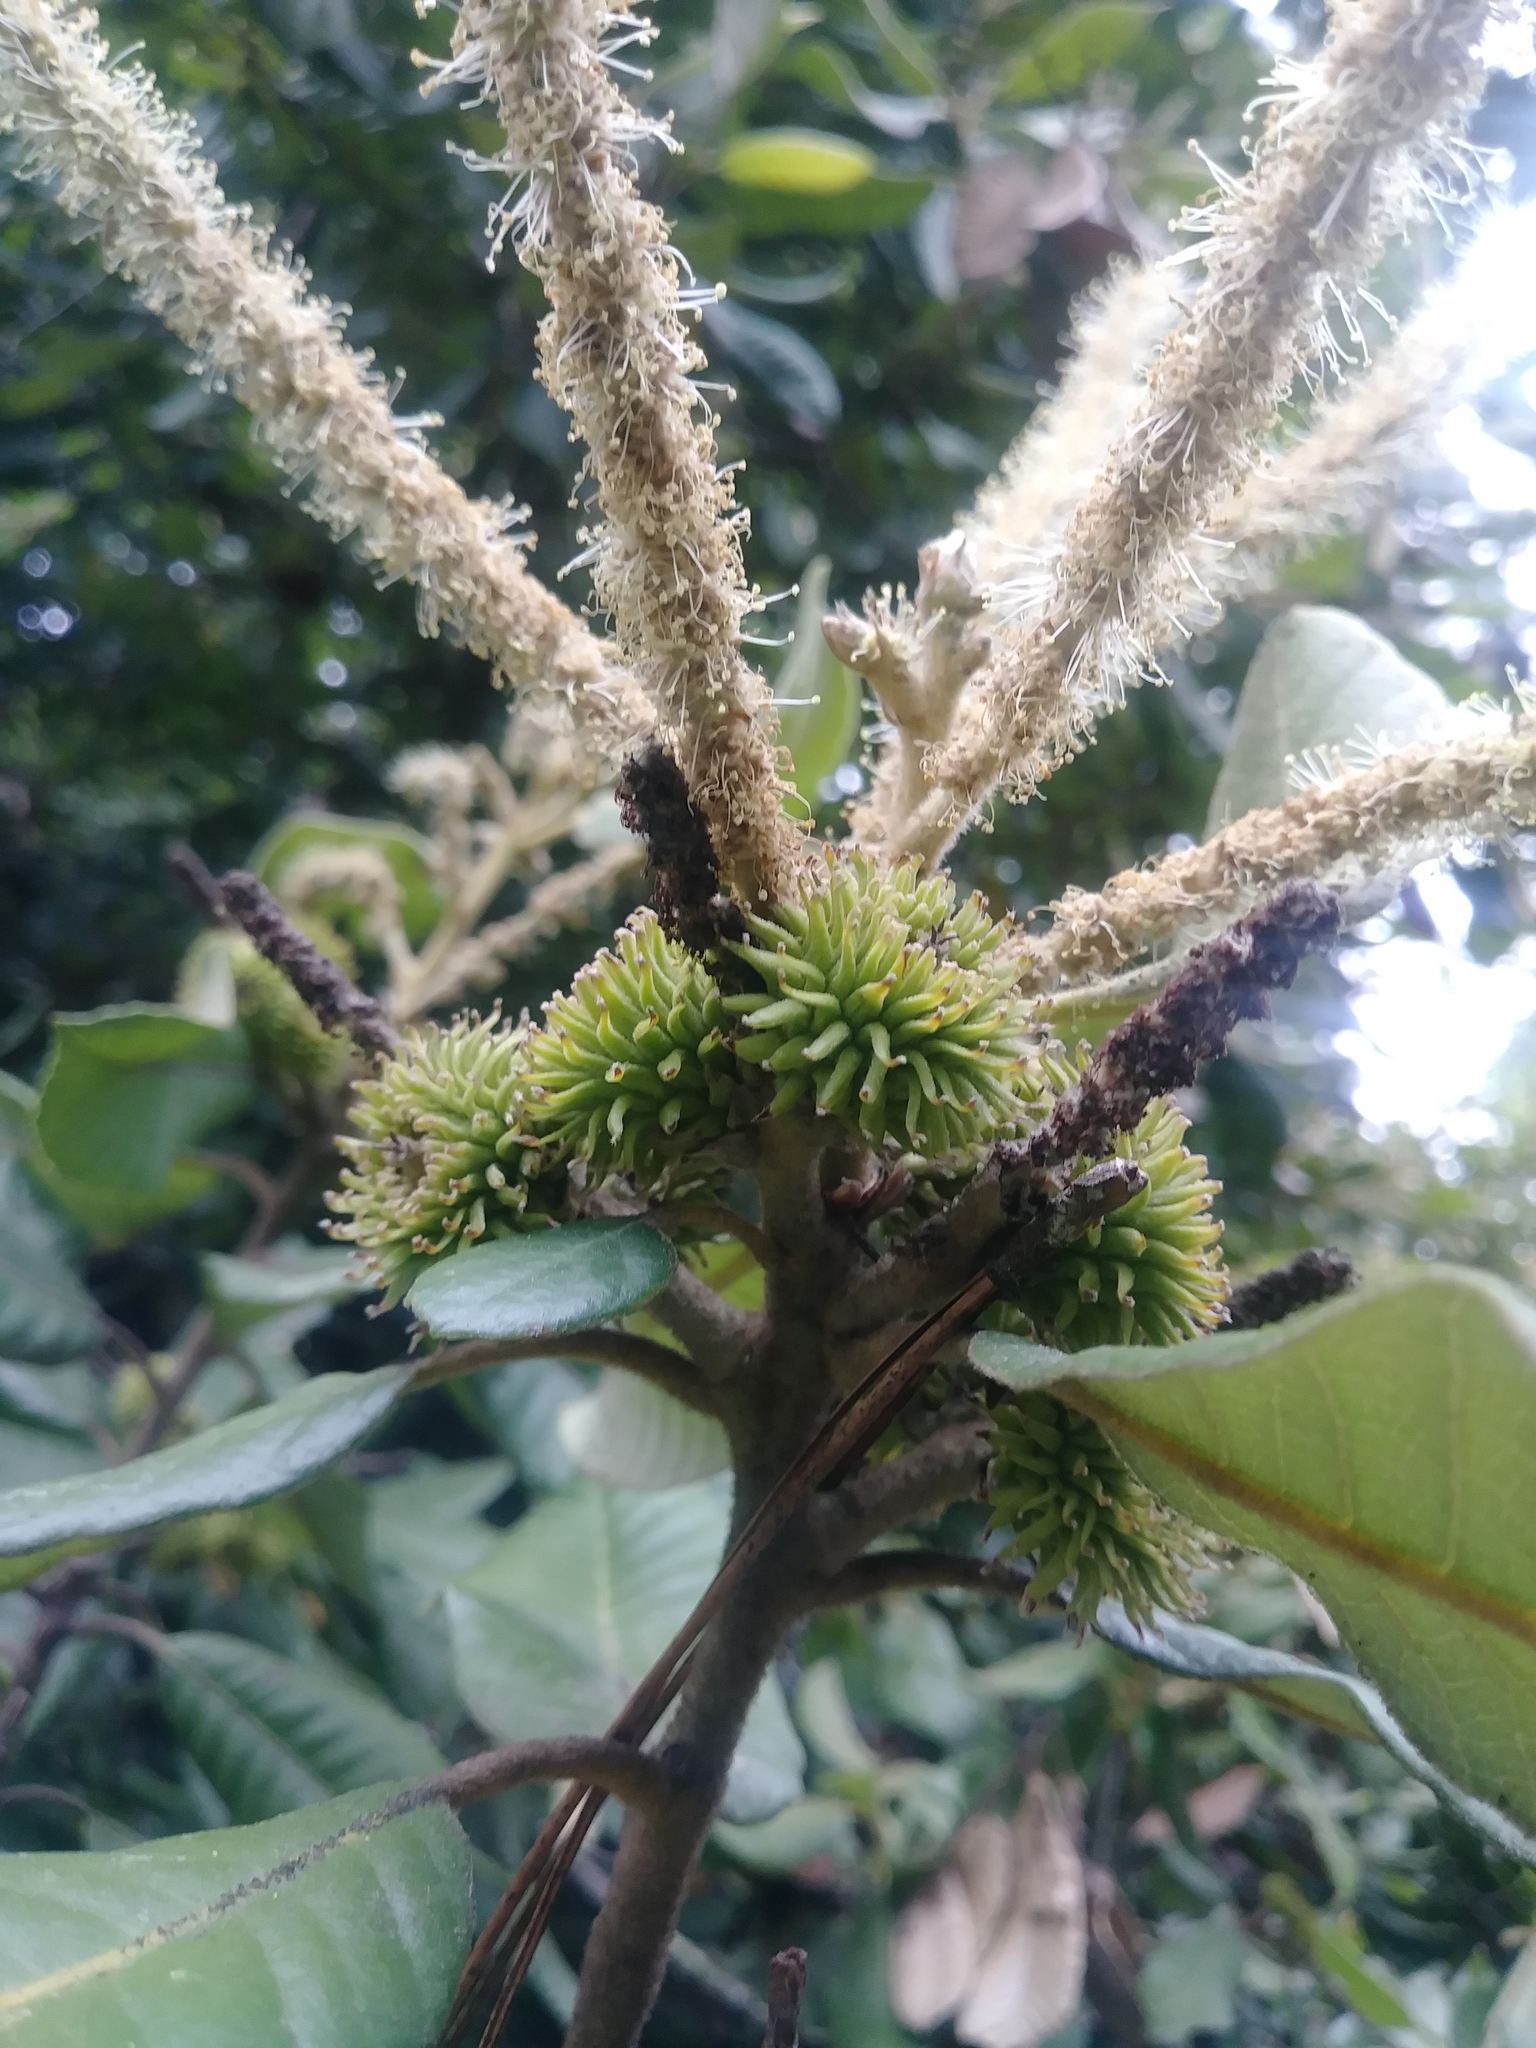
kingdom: Plantae
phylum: Tracheophyta
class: Magnoliopsida
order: Fagales
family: Fagaceae
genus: Notholithocarpus
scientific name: Notholithocarpus densiflorus
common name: Tan bark oak
